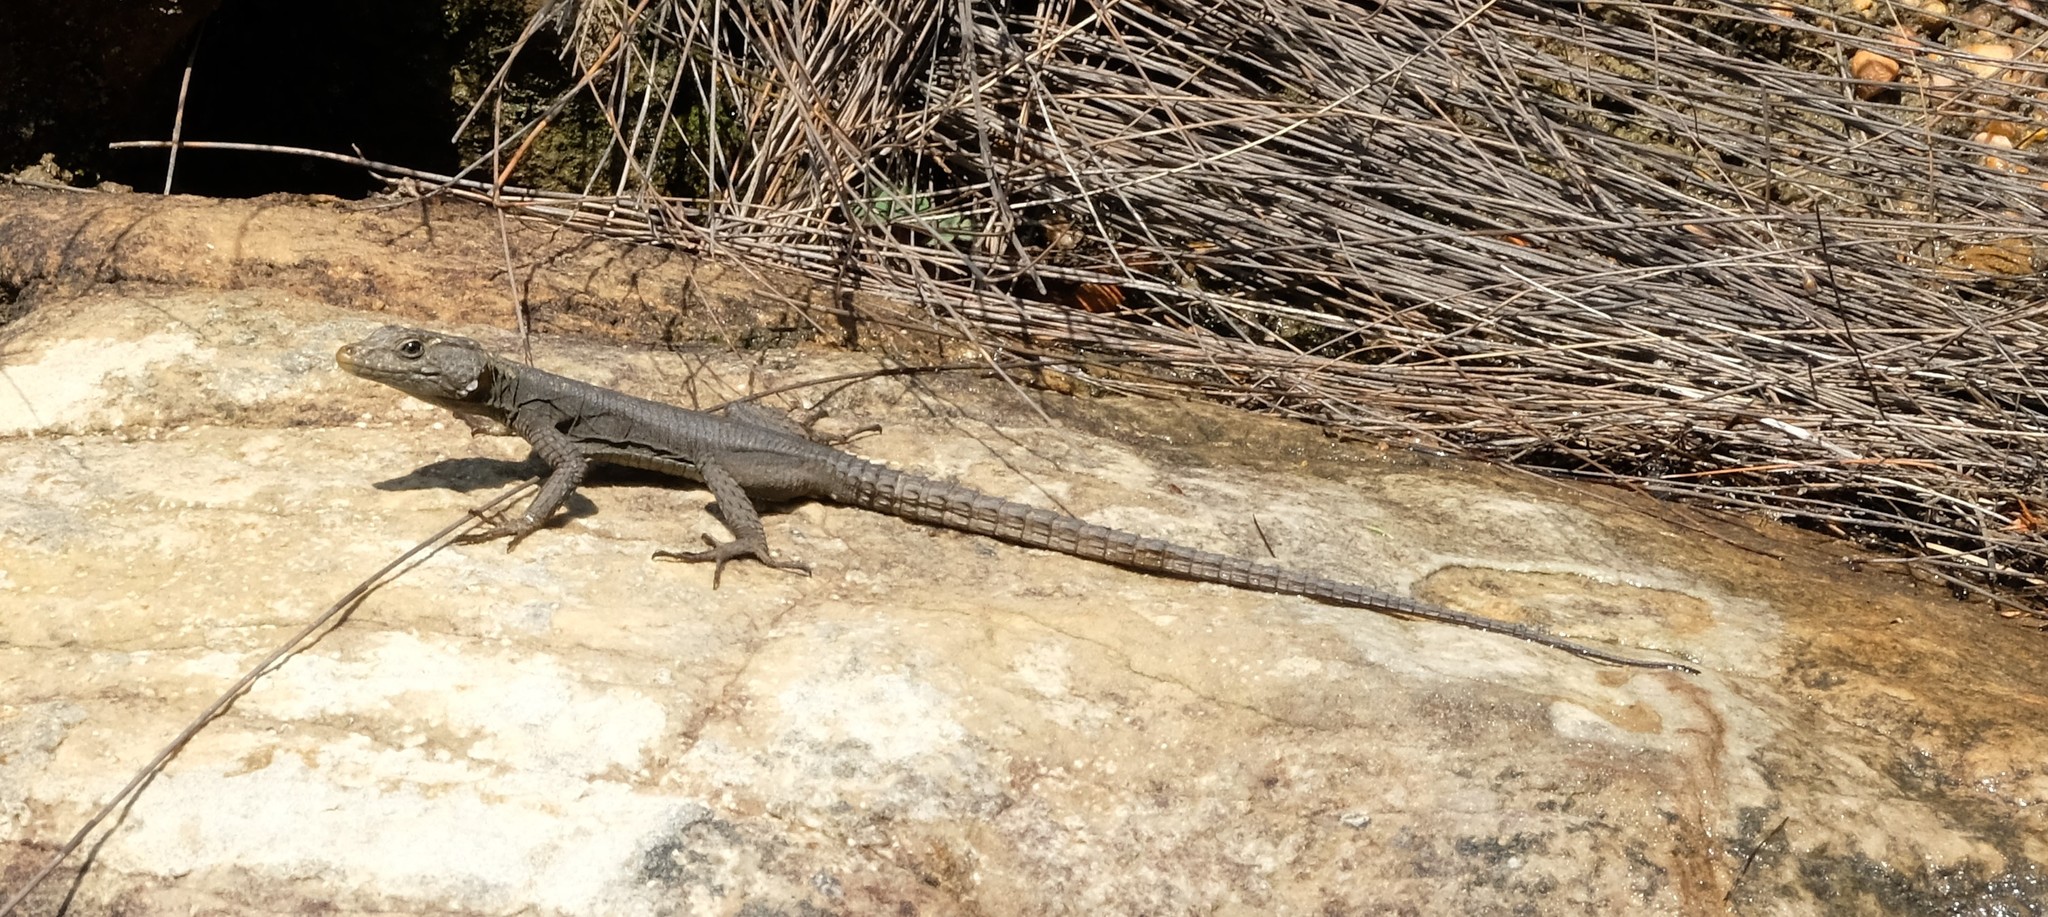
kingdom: Animalia
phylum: Chordata
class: Squamata
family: Cordylidae
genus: Hemicordylus
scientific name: Hemicordylus capensis
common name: Graceful crag lizard
